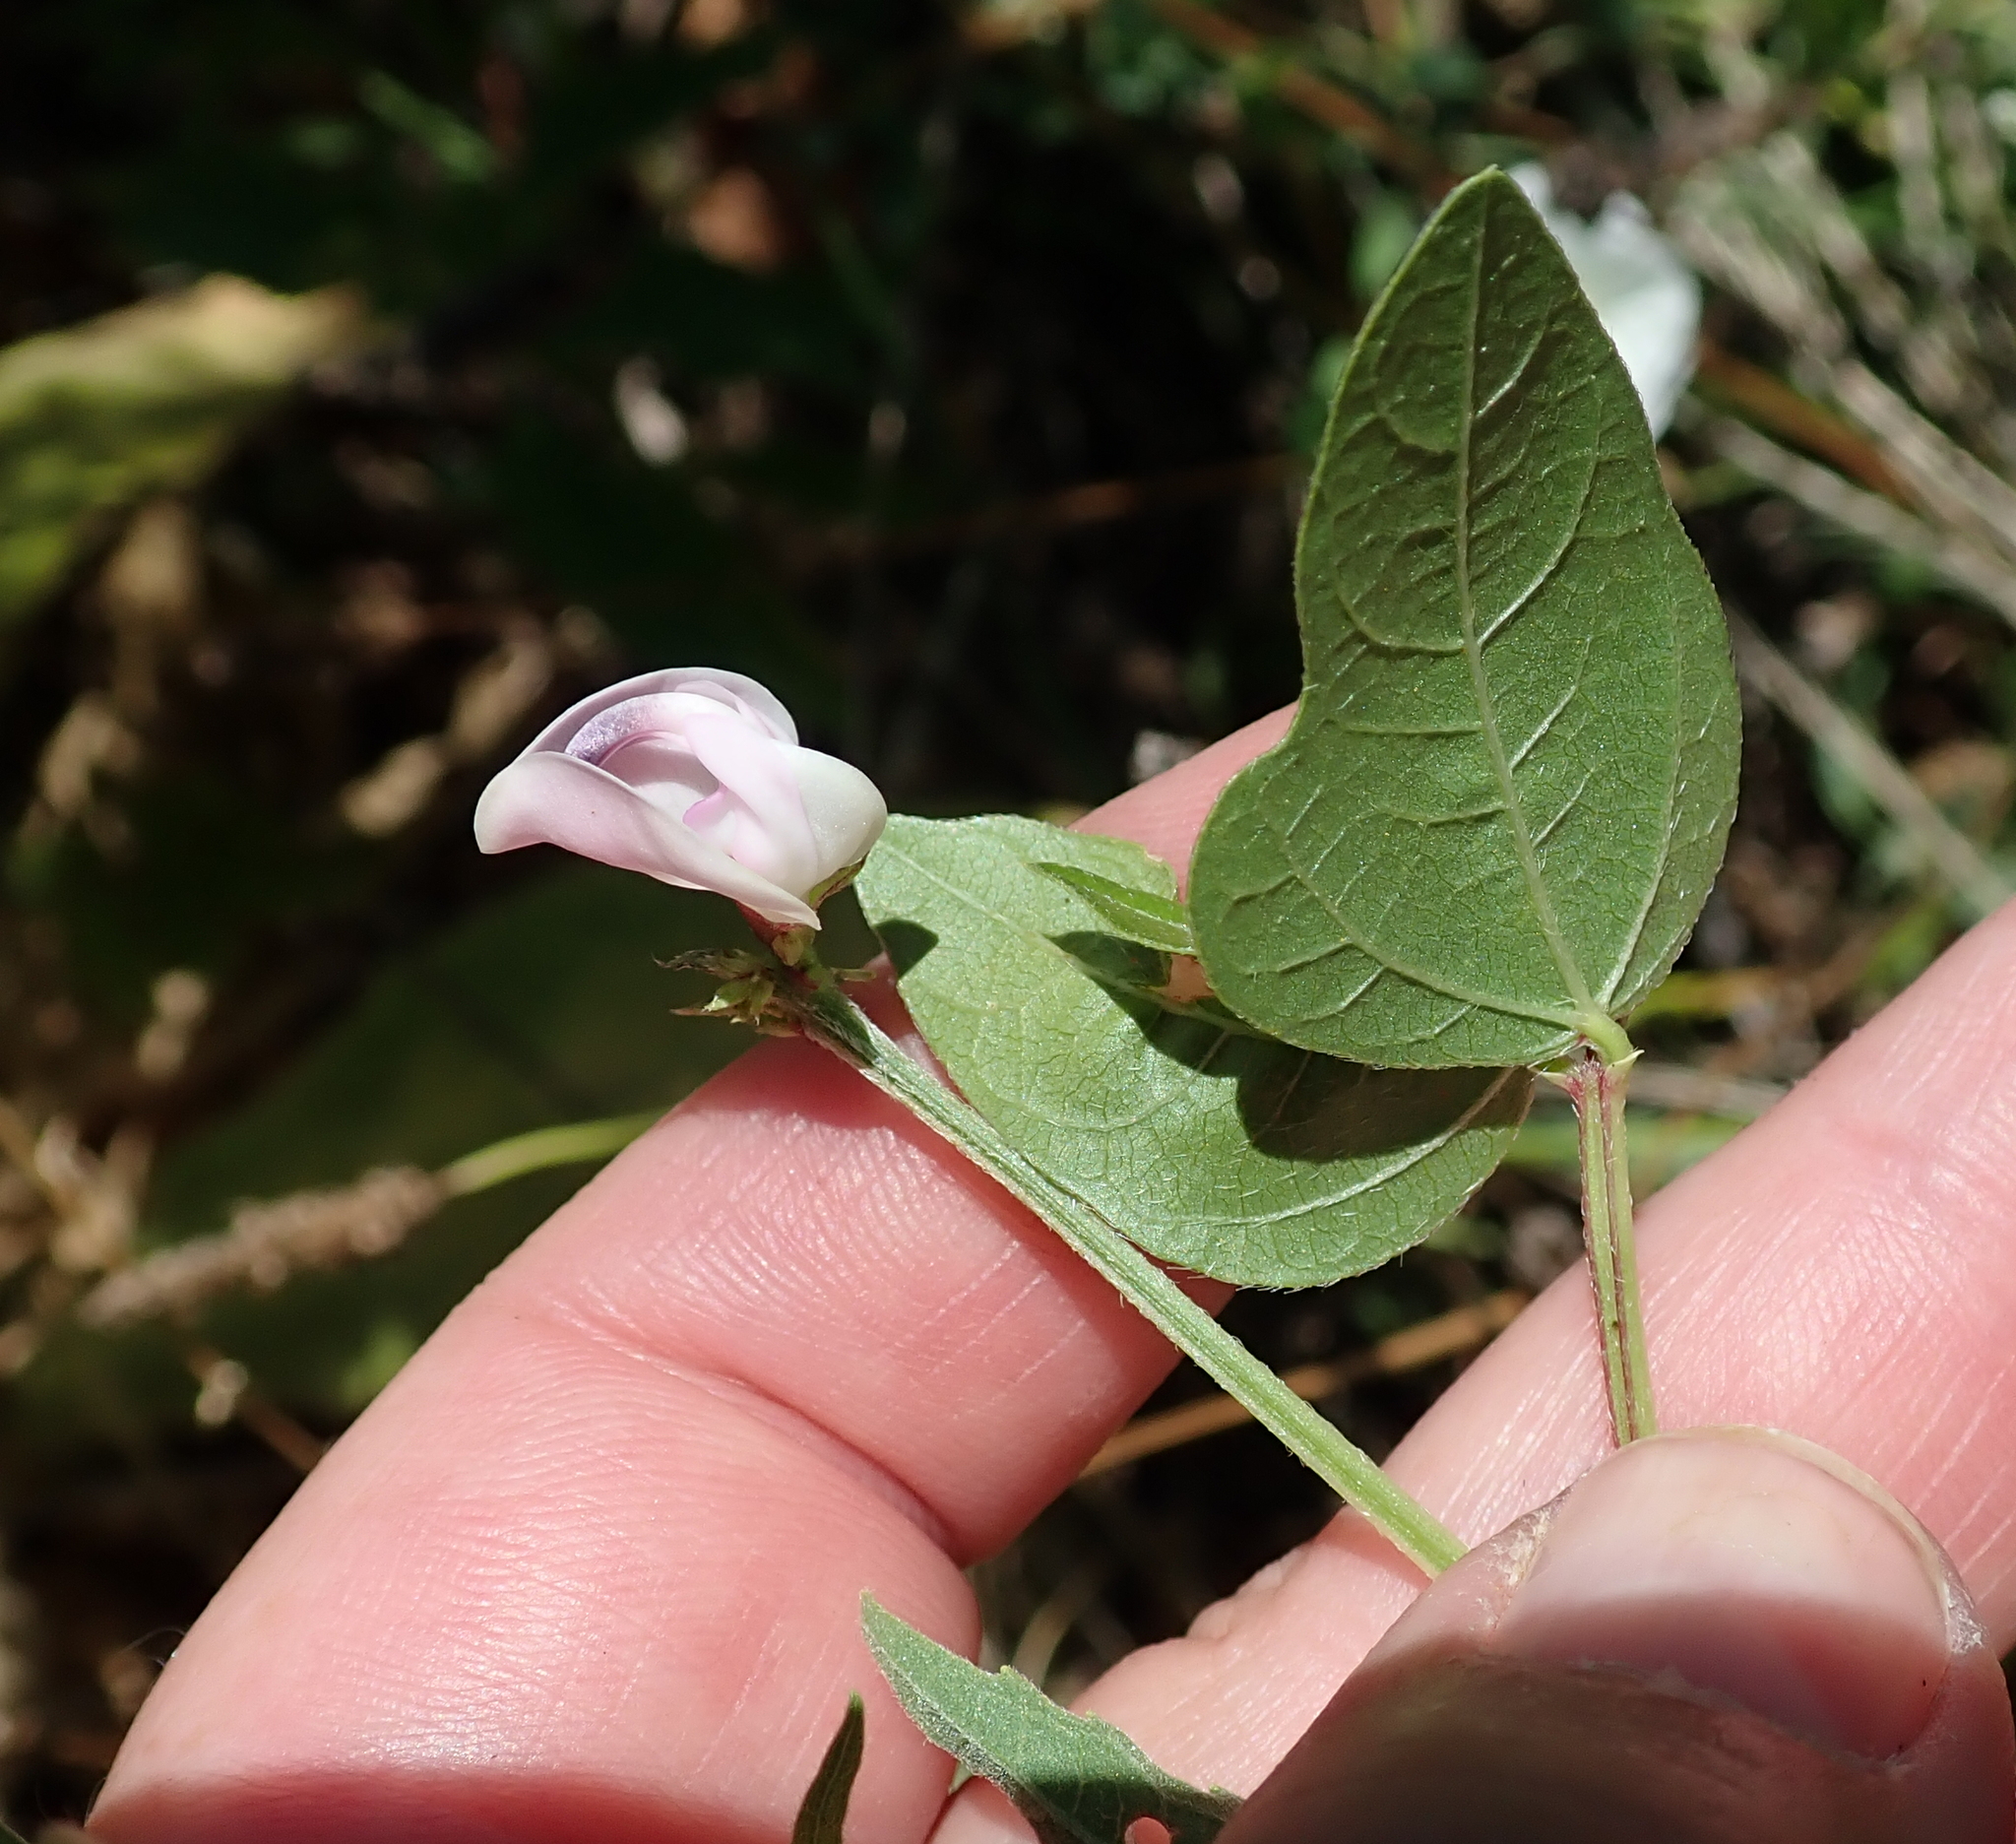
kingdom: Plantae
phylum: Tracheophyta
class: Magnoliopsida
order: Fabales
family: Fabaceae
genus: Strophostyles
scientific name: Strophostyles helvola
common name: Trailing wild bean
